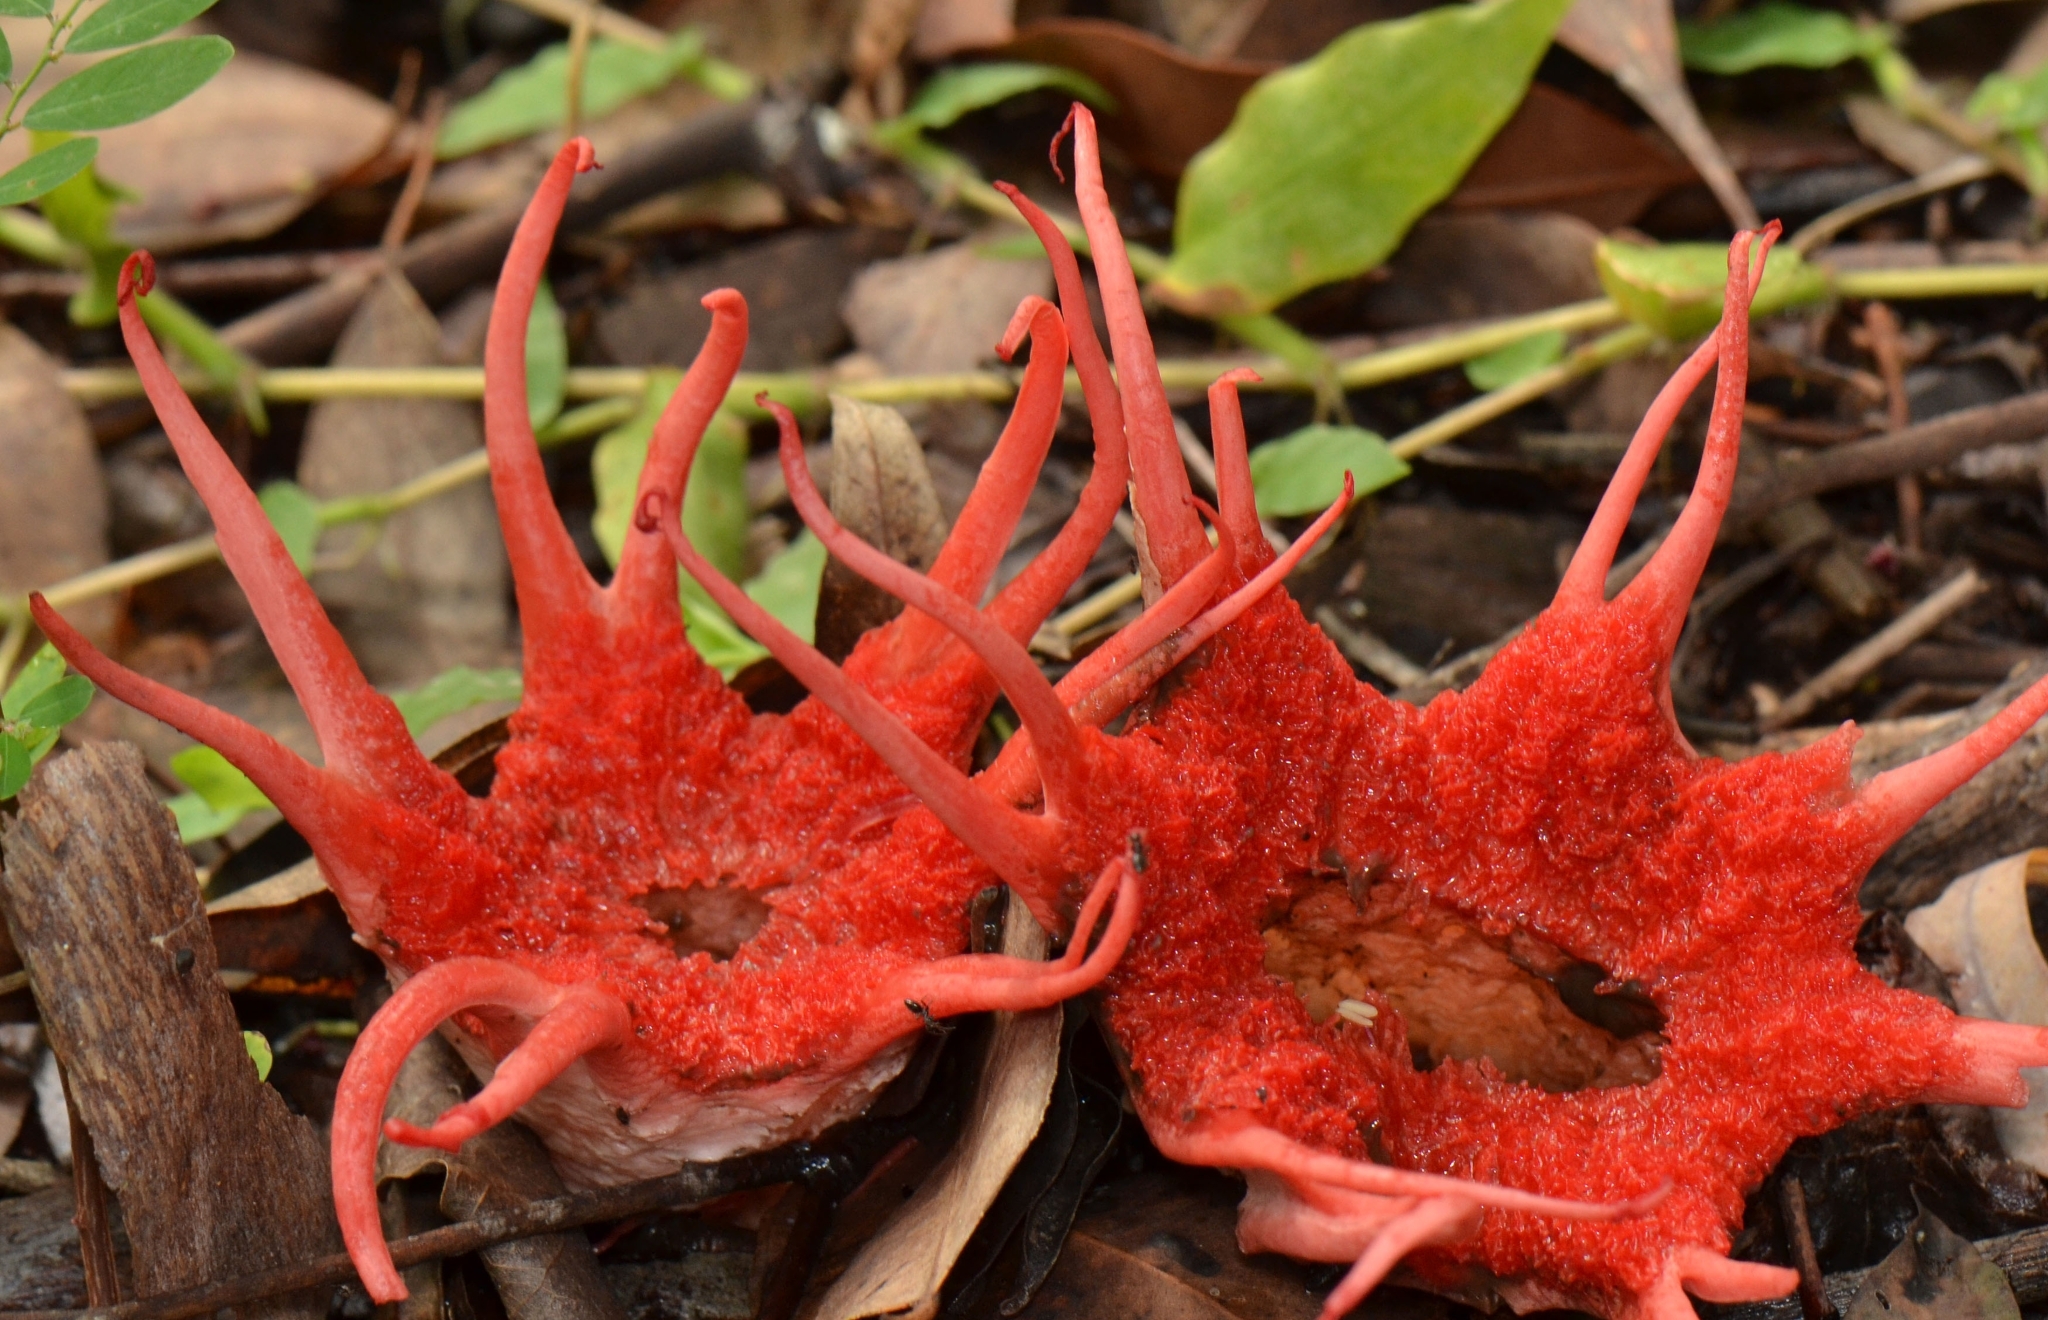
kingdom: Fungi
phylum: Basidiomycota
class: Agaricomycetes
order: Phallales
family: Phallaceae
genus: Aseroe
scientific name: Aseroe rubra
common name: Starfish fungus
